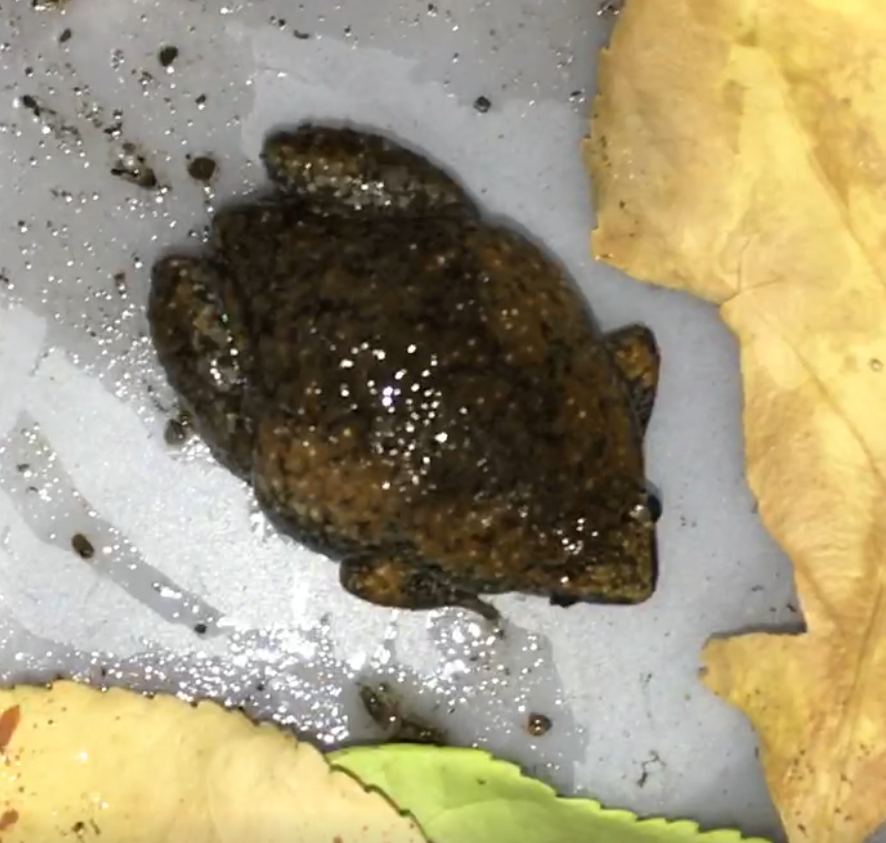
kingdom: Animalia
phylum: Chordata
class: Amphibia
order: Anura
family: Microhylidae
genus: Gastrophryne
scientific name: Gastrophryne carolinensis
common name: Eastern narrowmouth toad
